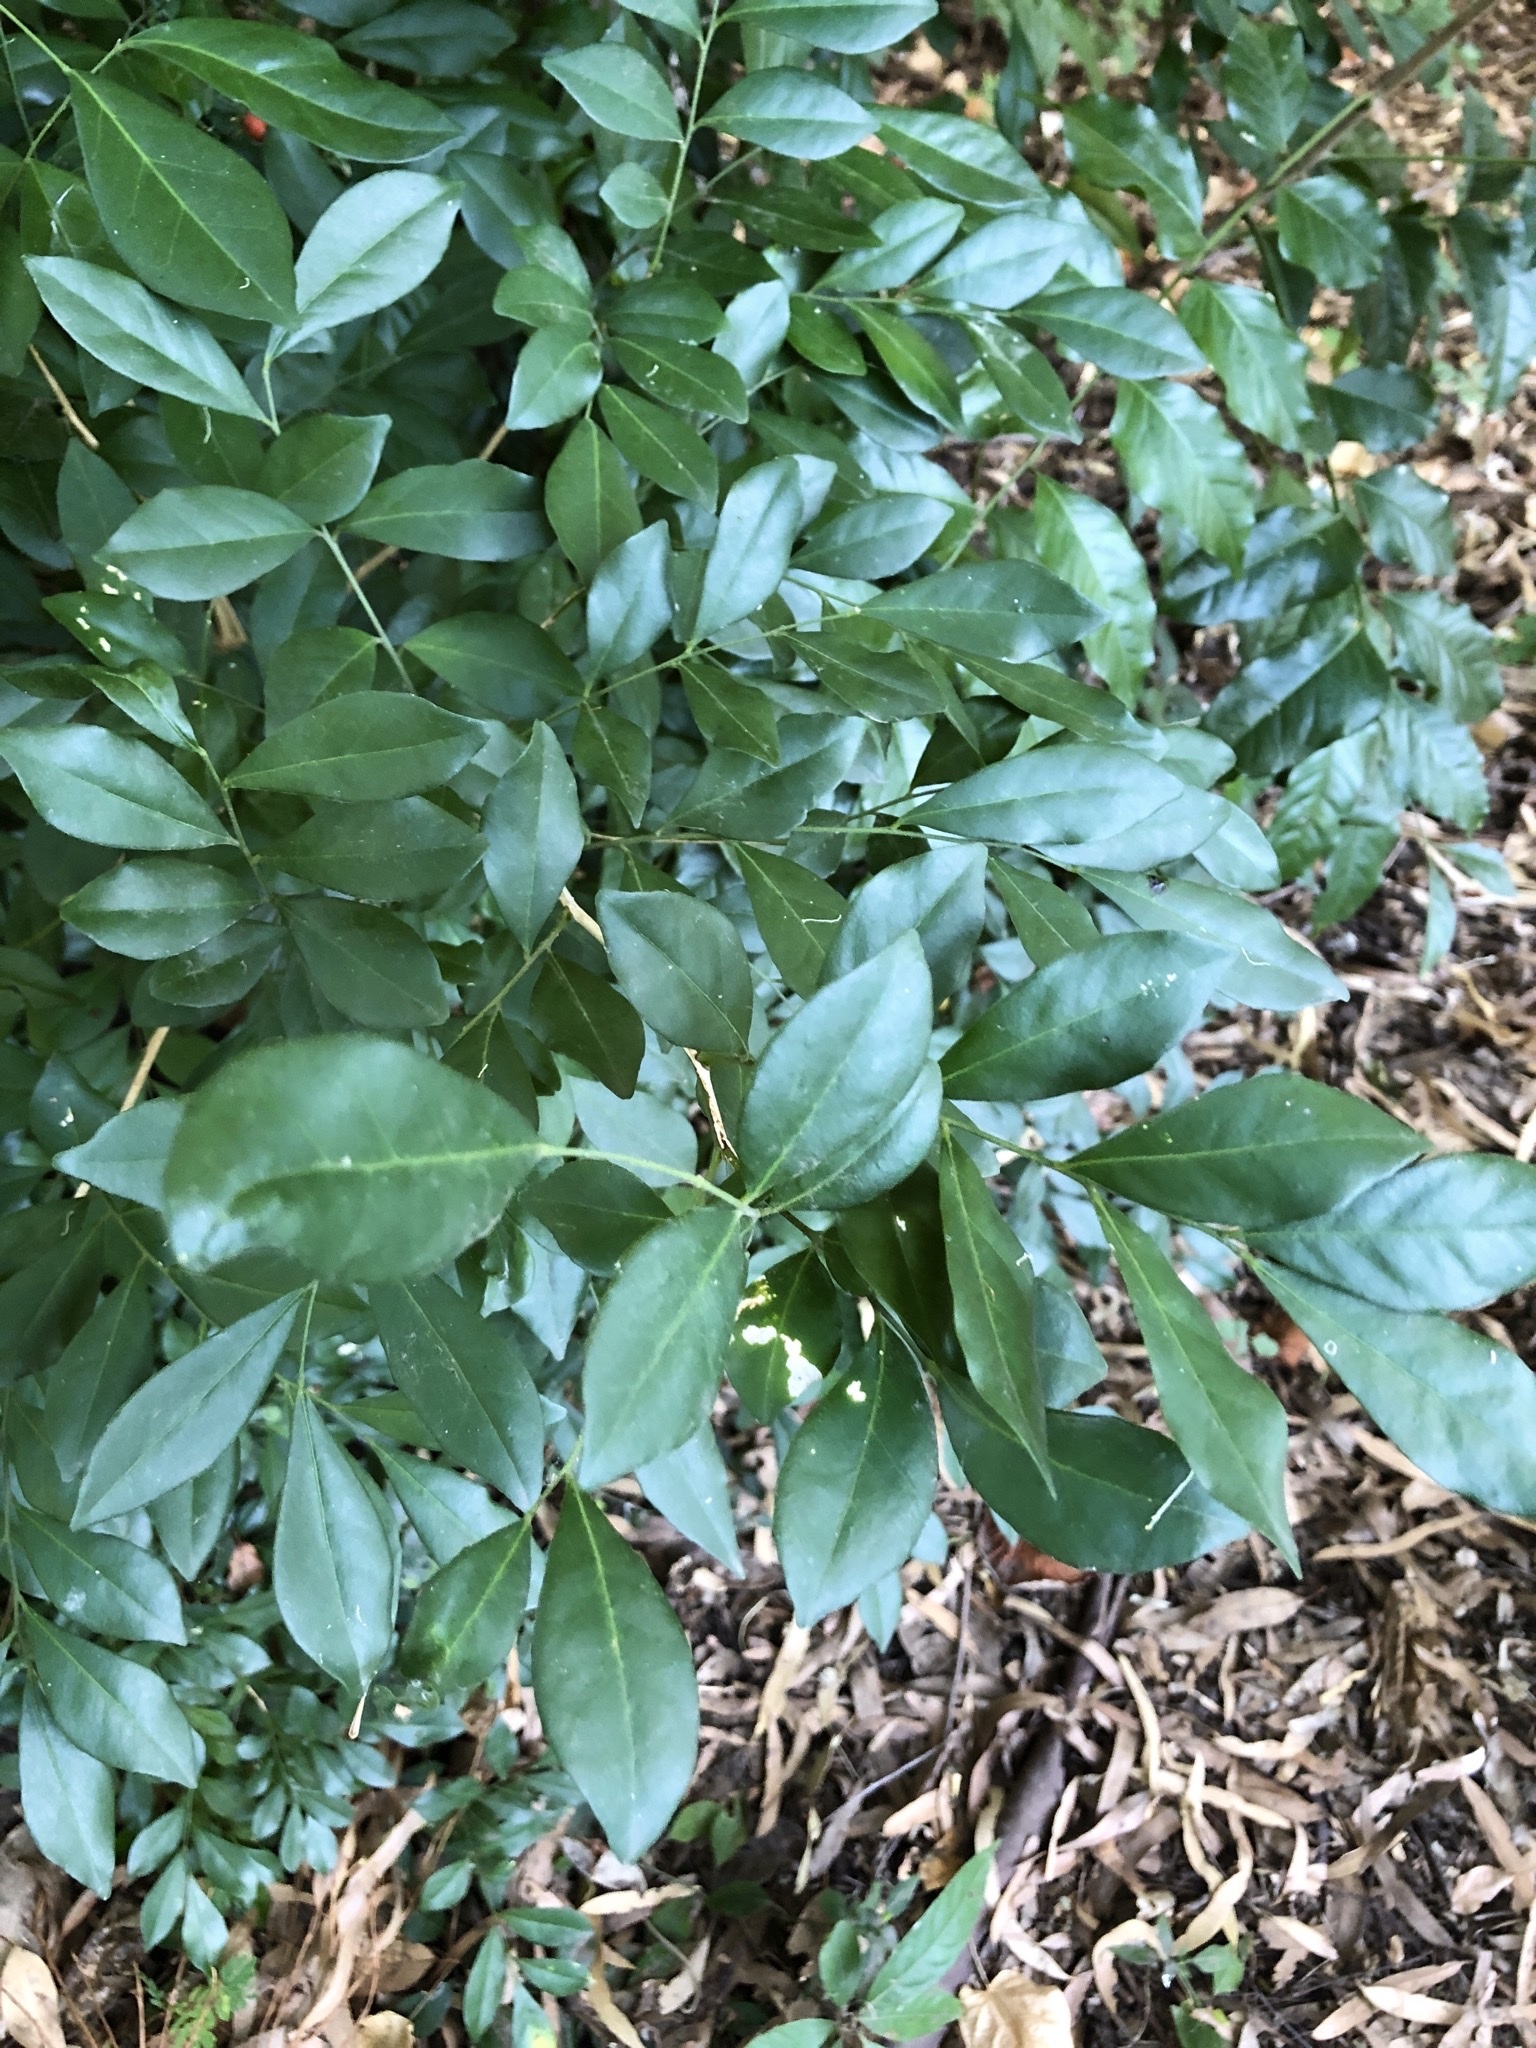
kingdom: Plantae
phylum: Tracheophyta
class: Magnoliopsida
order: Sapindales
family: Rutaceae
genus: Murraya
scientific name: Murraya paniculata
